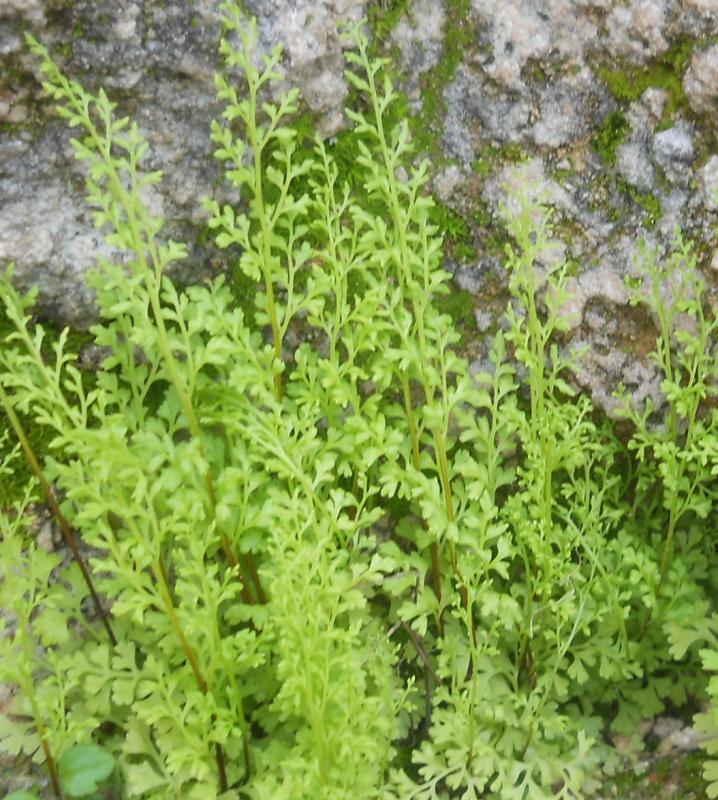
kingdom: Plantae
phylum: Tracheophyta
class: Polypodiopsida
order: Polypodiales
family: Pteridaceae
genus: Anogramma
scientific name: Anogramma leptophylla
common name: Jersey fern
